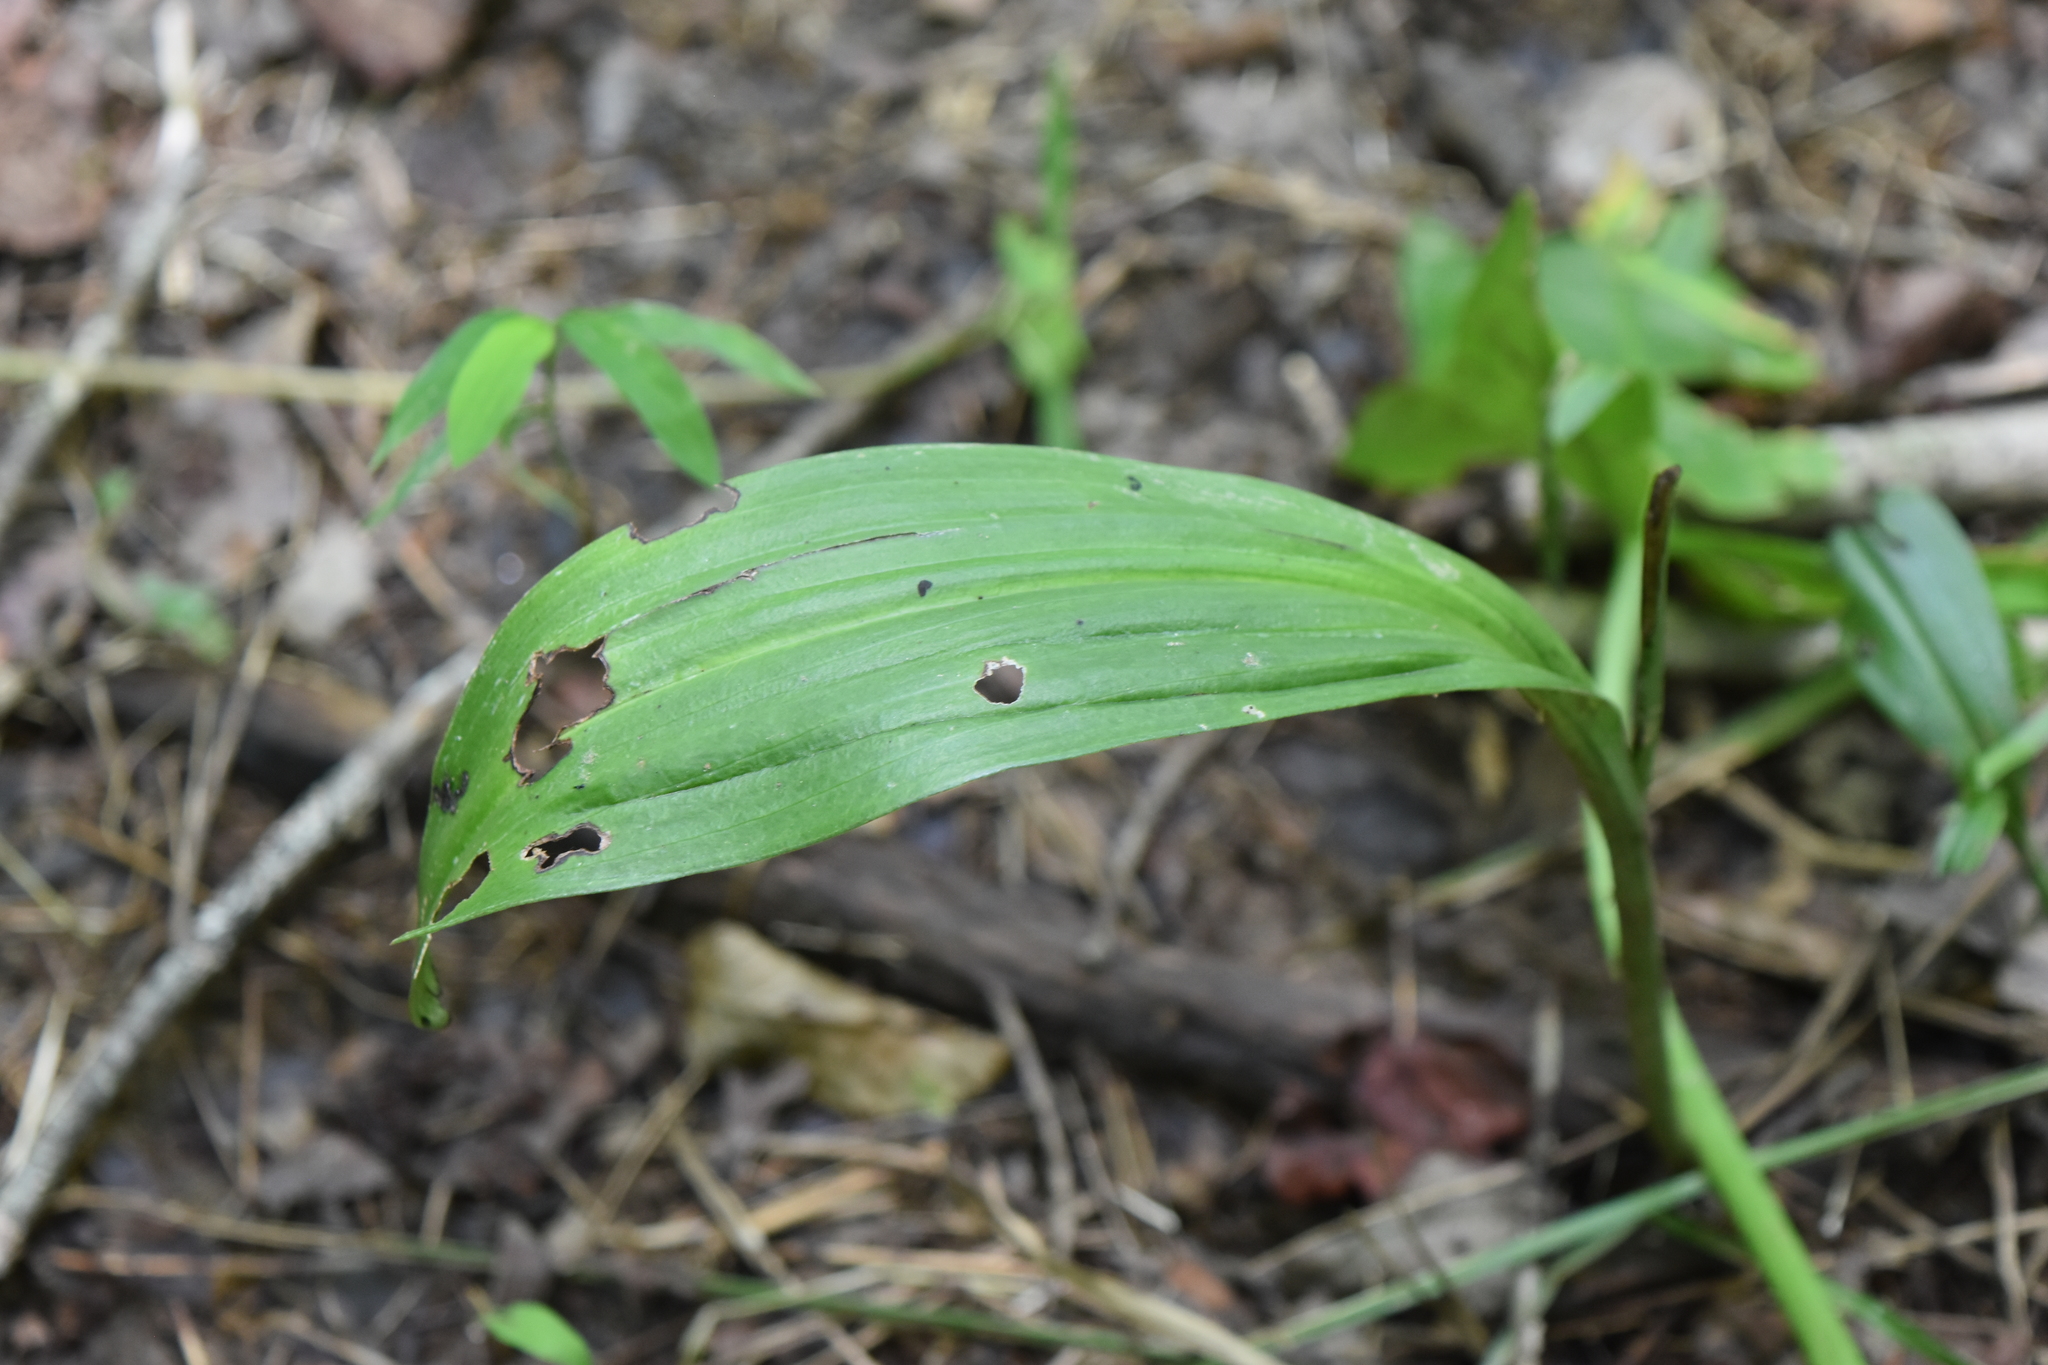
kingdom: Plantae
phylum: Tracheophyta
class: Liliopsida
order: Asparagales
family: Orchidaceae
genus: Platanthera
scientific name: Platanthera clavellata
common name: Club-spur orchid
